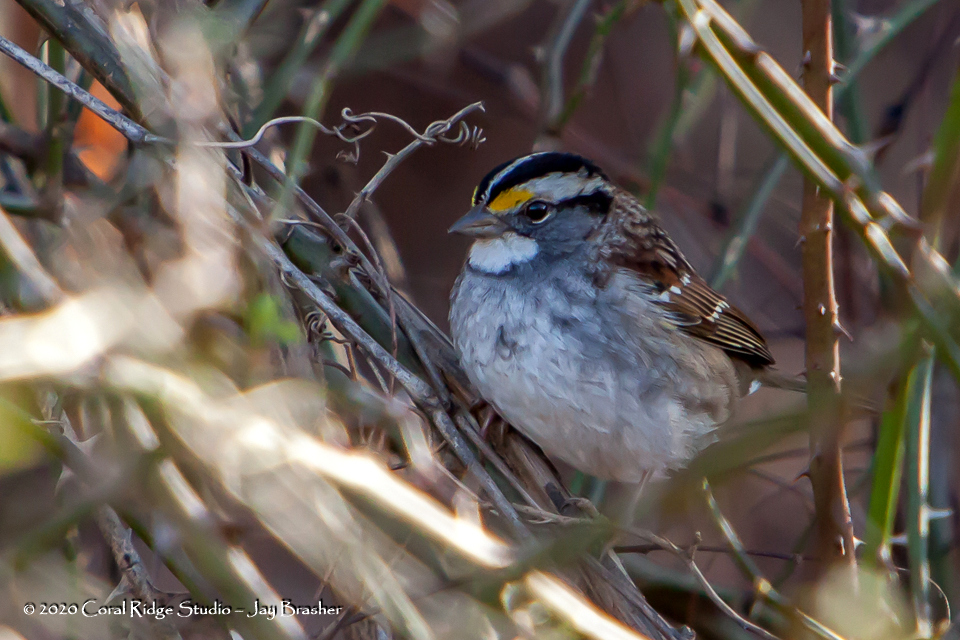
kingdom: Animalia
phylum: Chordata
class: Aves
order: Passeriformes
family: Passerellidae
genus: Zonotrichia
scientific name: Zonotrichia albicollis
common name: White-throated sparrow
